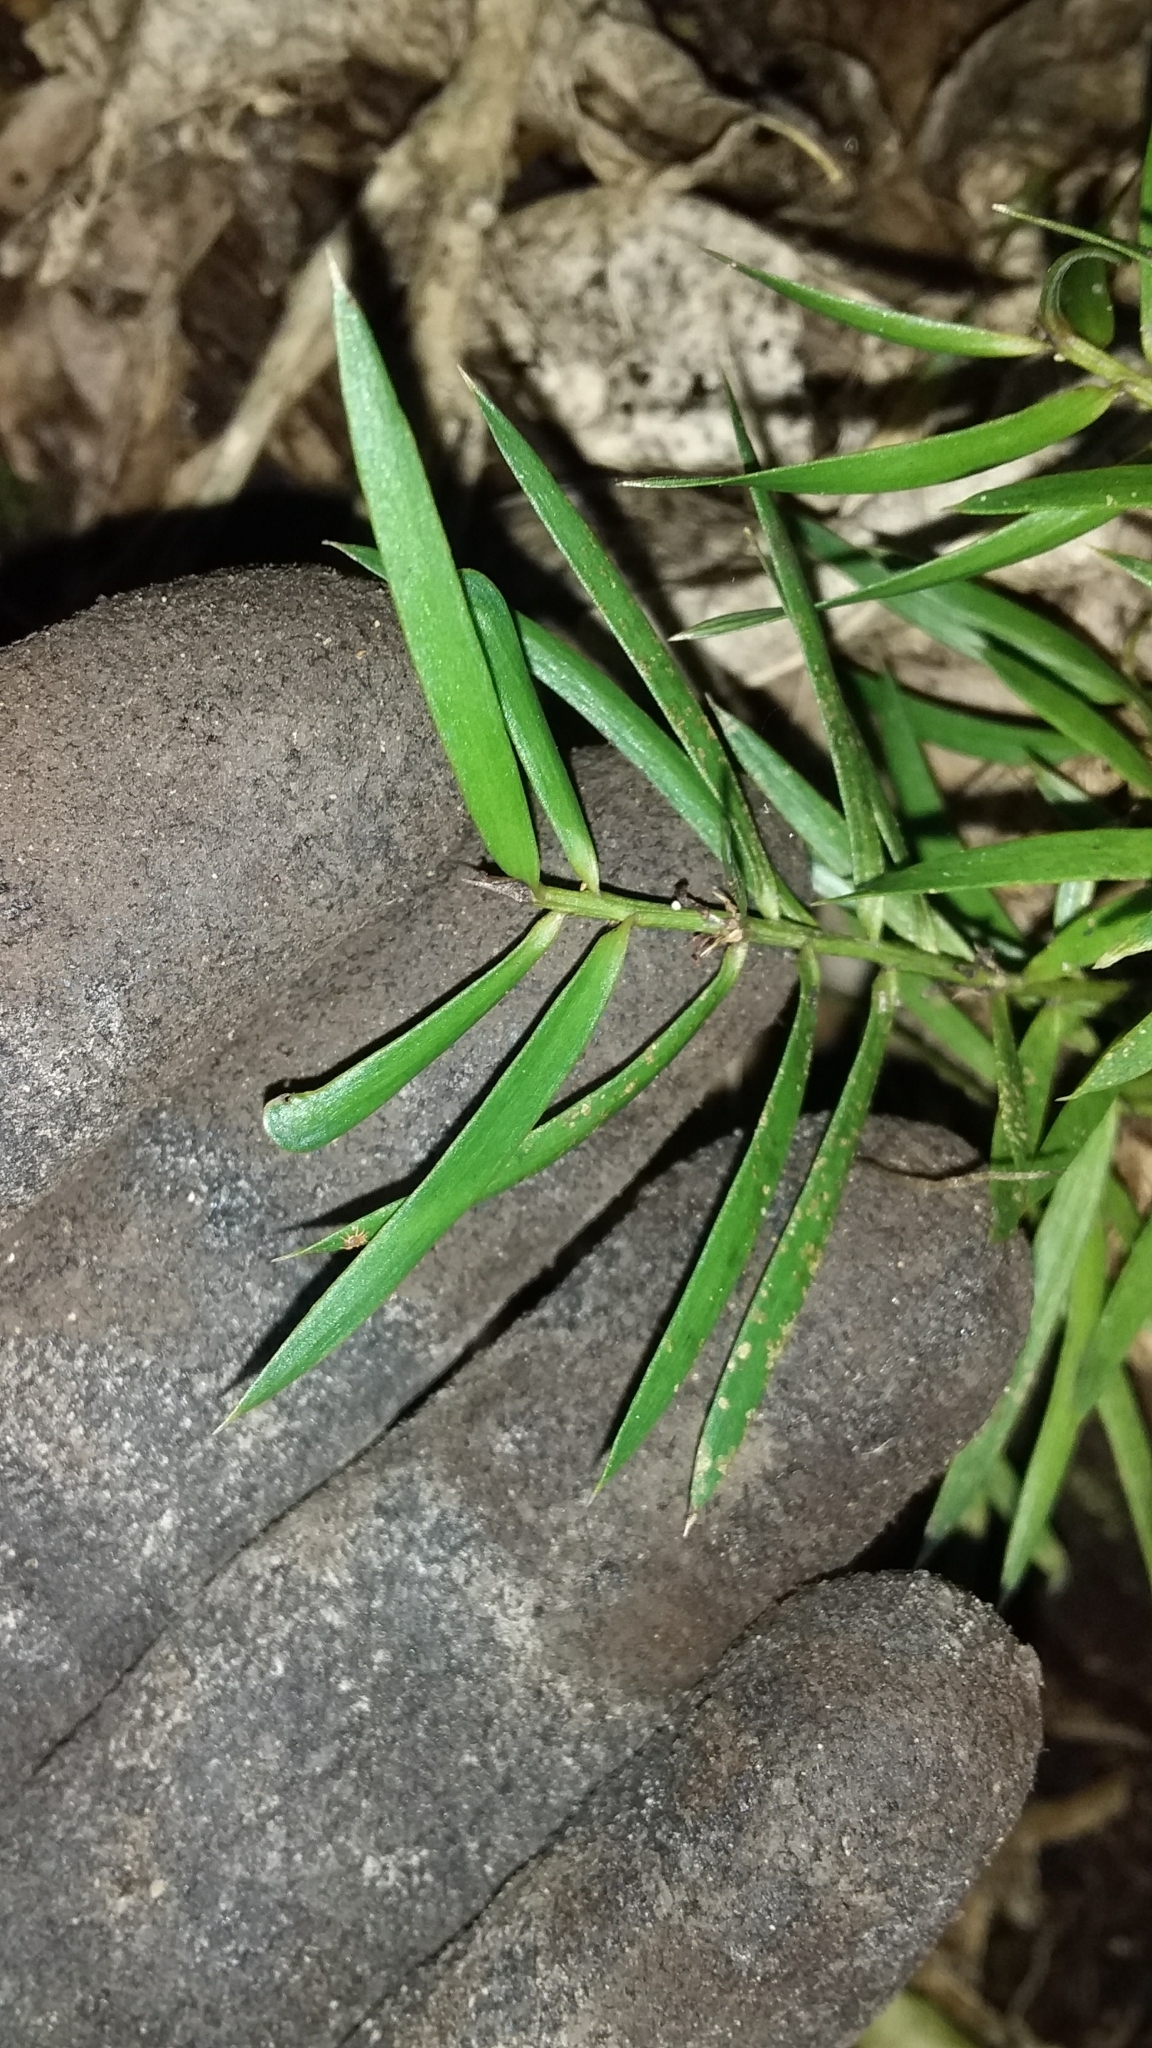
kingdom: Plantae
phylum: Tracheophyta
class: Pinopsida
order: Pinales
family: Podocarpaceae
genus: Podocarpus
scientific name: Podocarpus totara
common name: Totara
